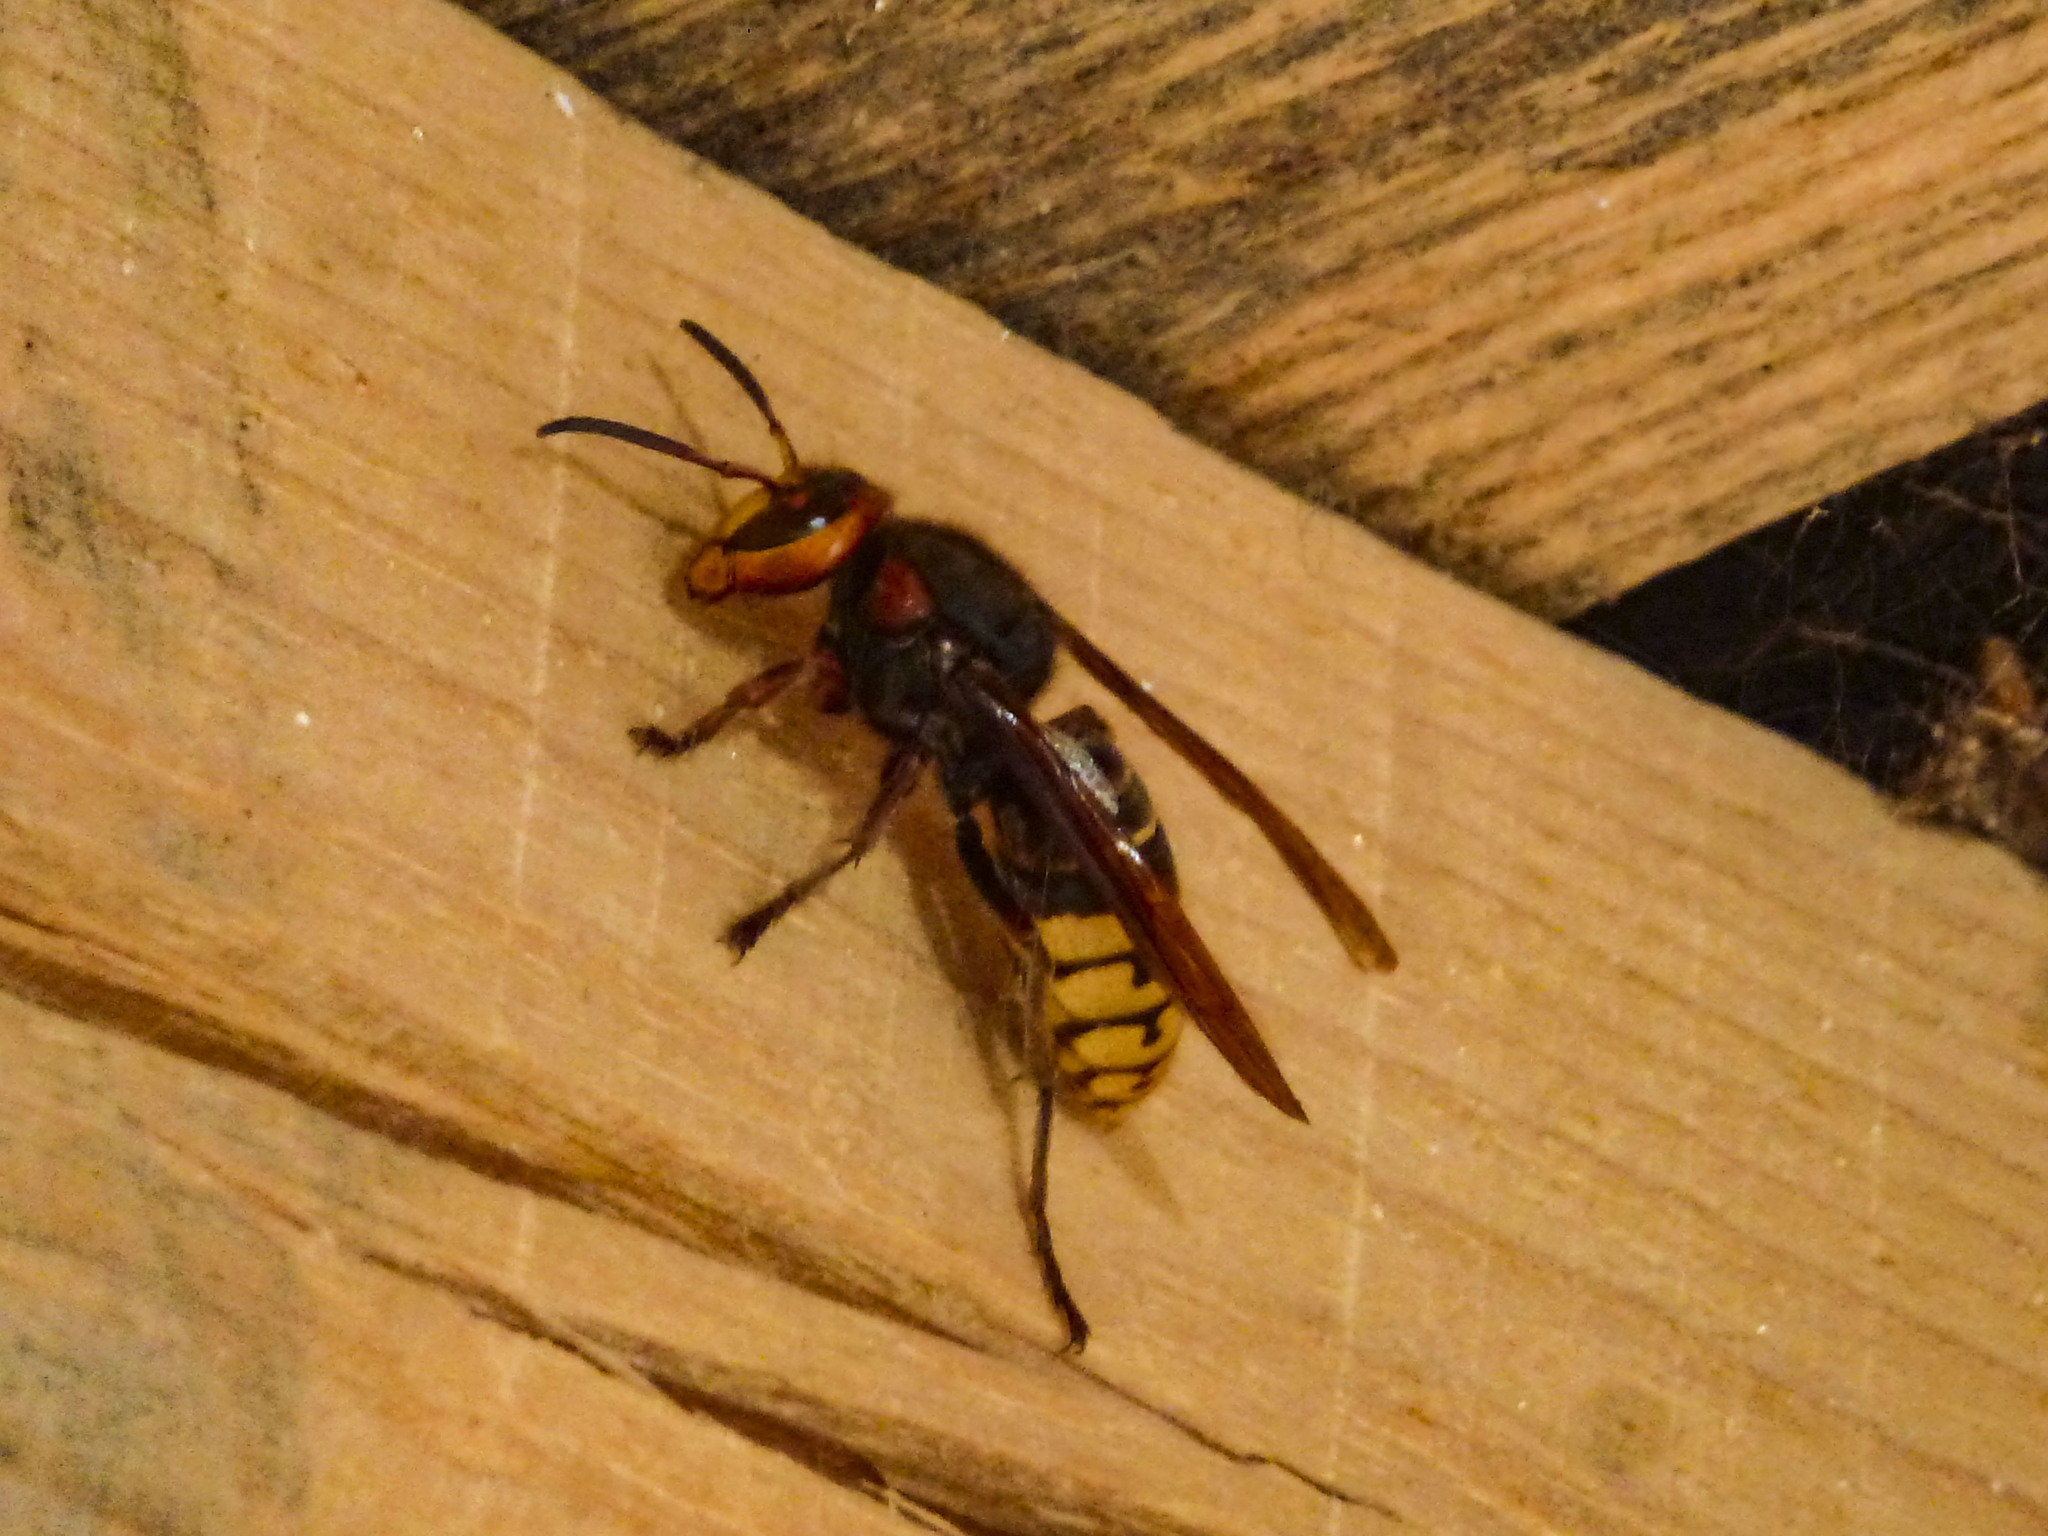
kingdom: Animalia
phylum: Arthropoda
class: Insecta
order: Hymenoptera
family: Vespidae
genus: Vespa
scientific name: Vespa crabro
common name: Hornet
